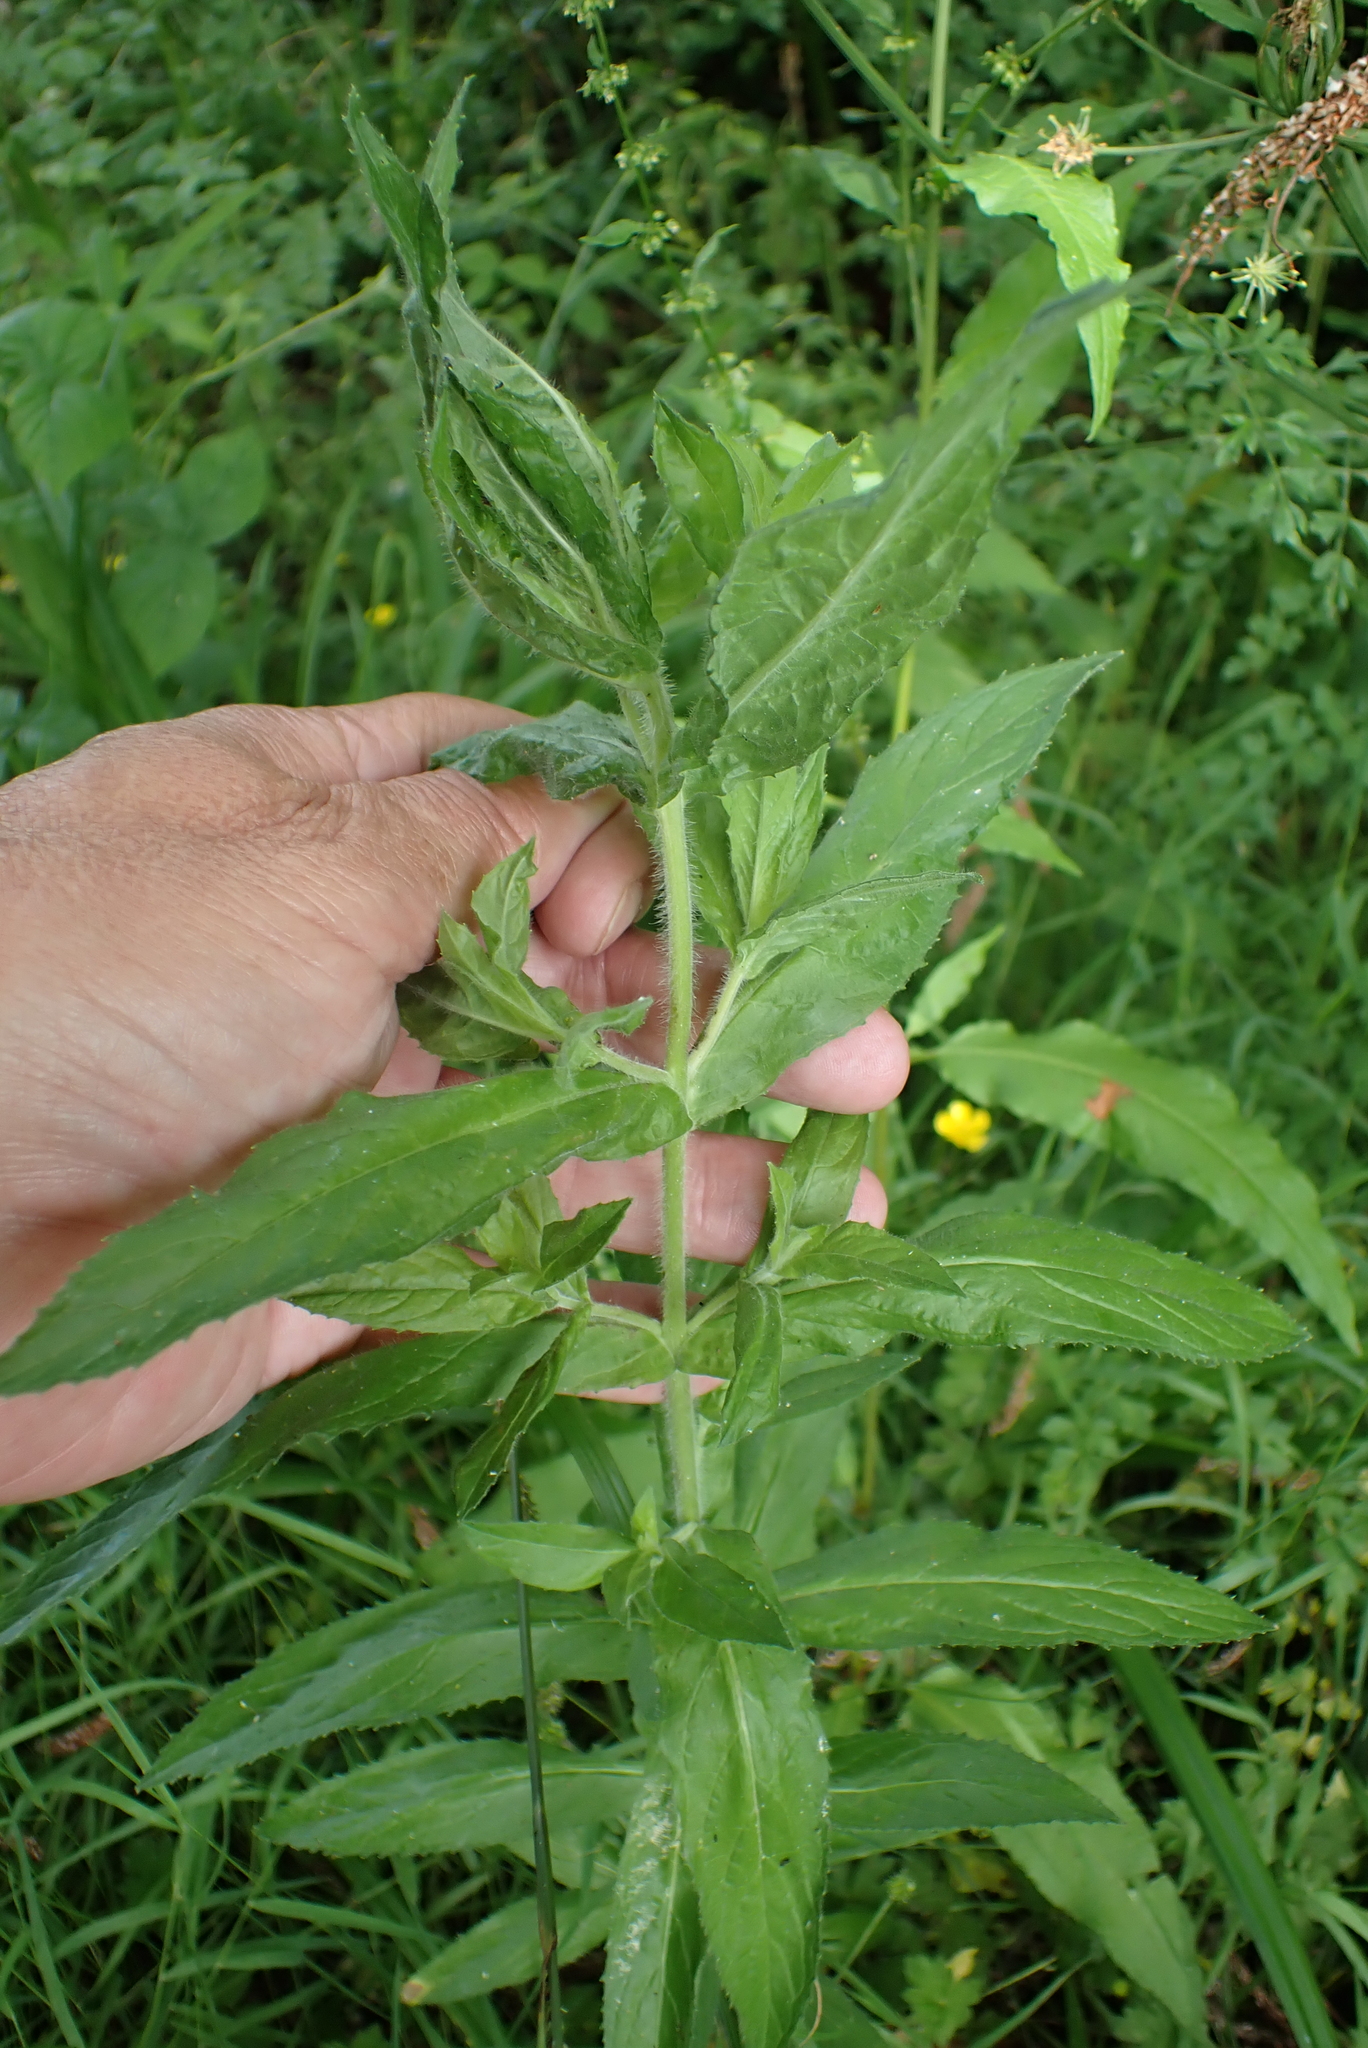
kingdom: Plantae
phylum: Tracheophyta
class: Magnoliopsida
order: Myrtales
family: Onagraceae
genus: Epilobium
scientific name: Epilobium hirsutum
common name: Great willowherb
